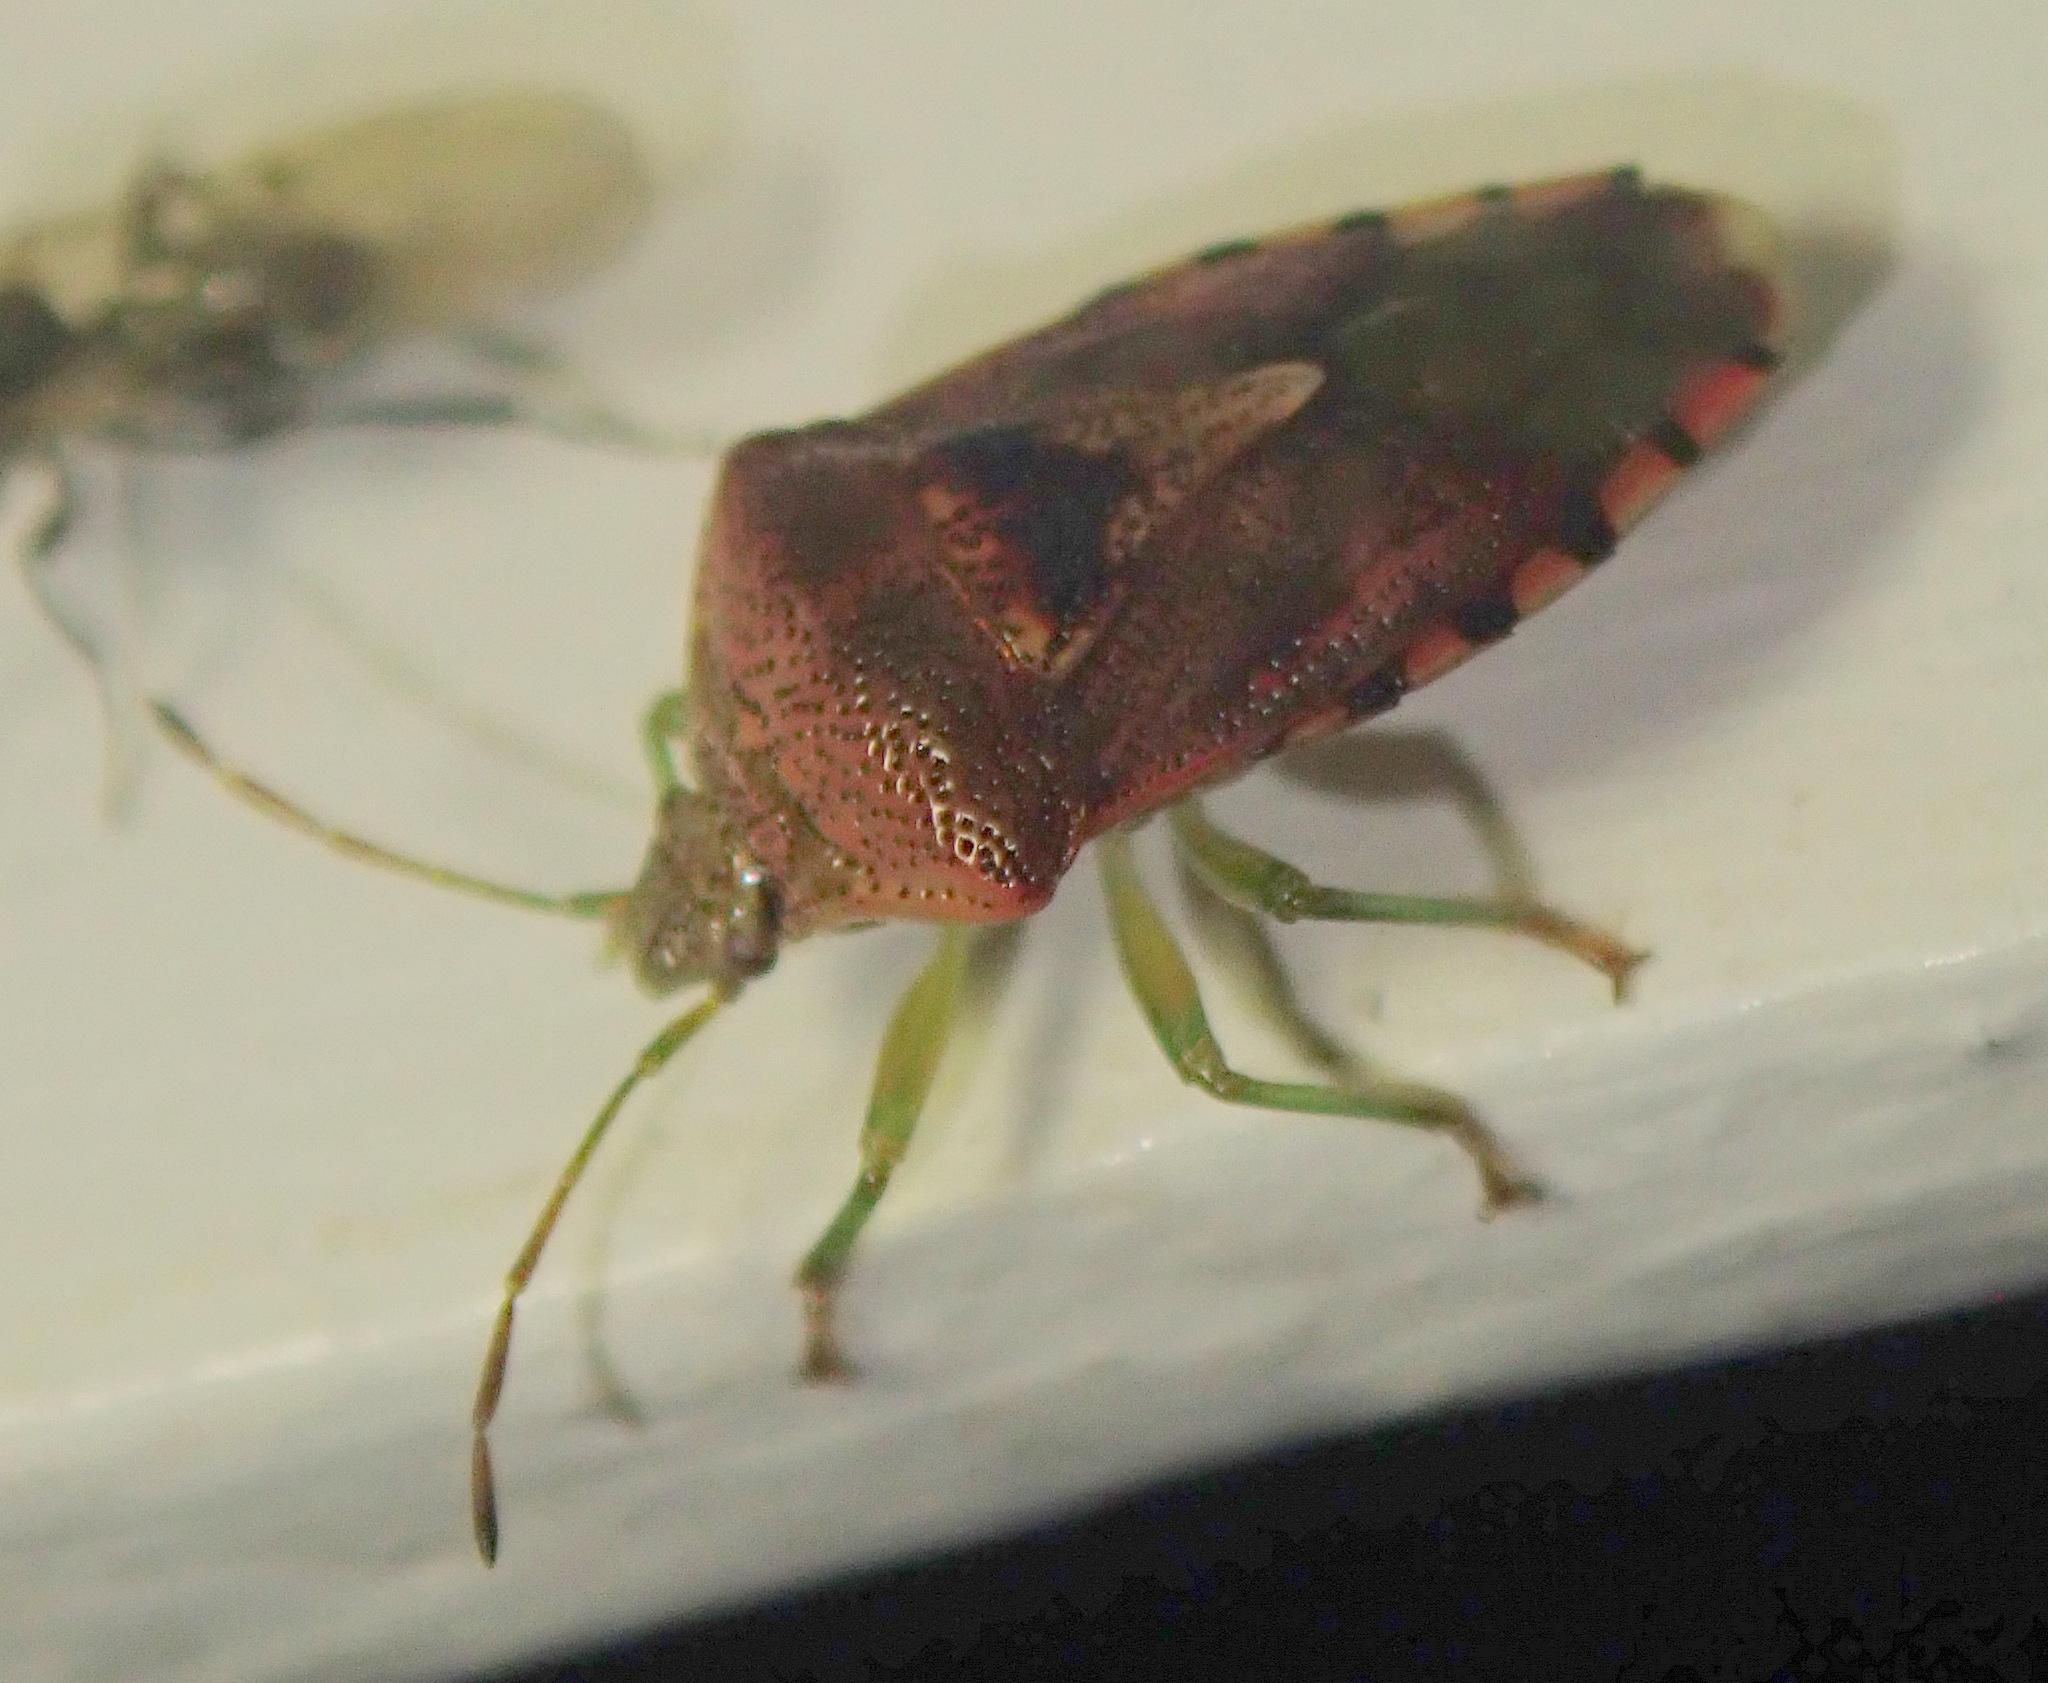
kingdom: Animalia
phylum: Arthropoda
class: Insecta
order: Hemiptera
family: Acanthosomatidae
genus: Elasmucha
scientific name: Elasmucha grisea
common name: Parent bug
